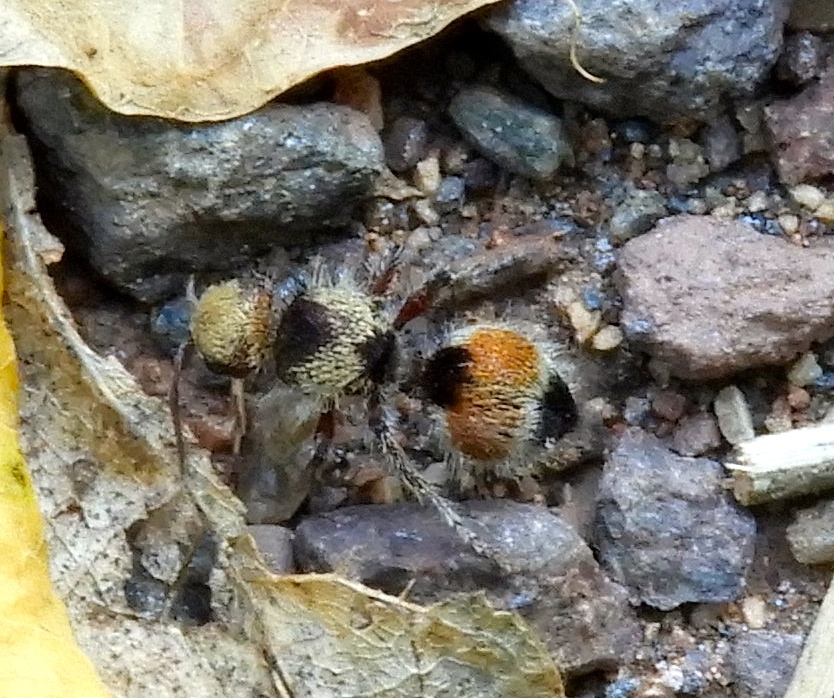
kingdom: Animalia
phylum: Arthropoda
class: Insecta
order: Hymenoptera
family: Mutillidae
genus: Dasymutilla
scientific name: Dasymutilla foxi
